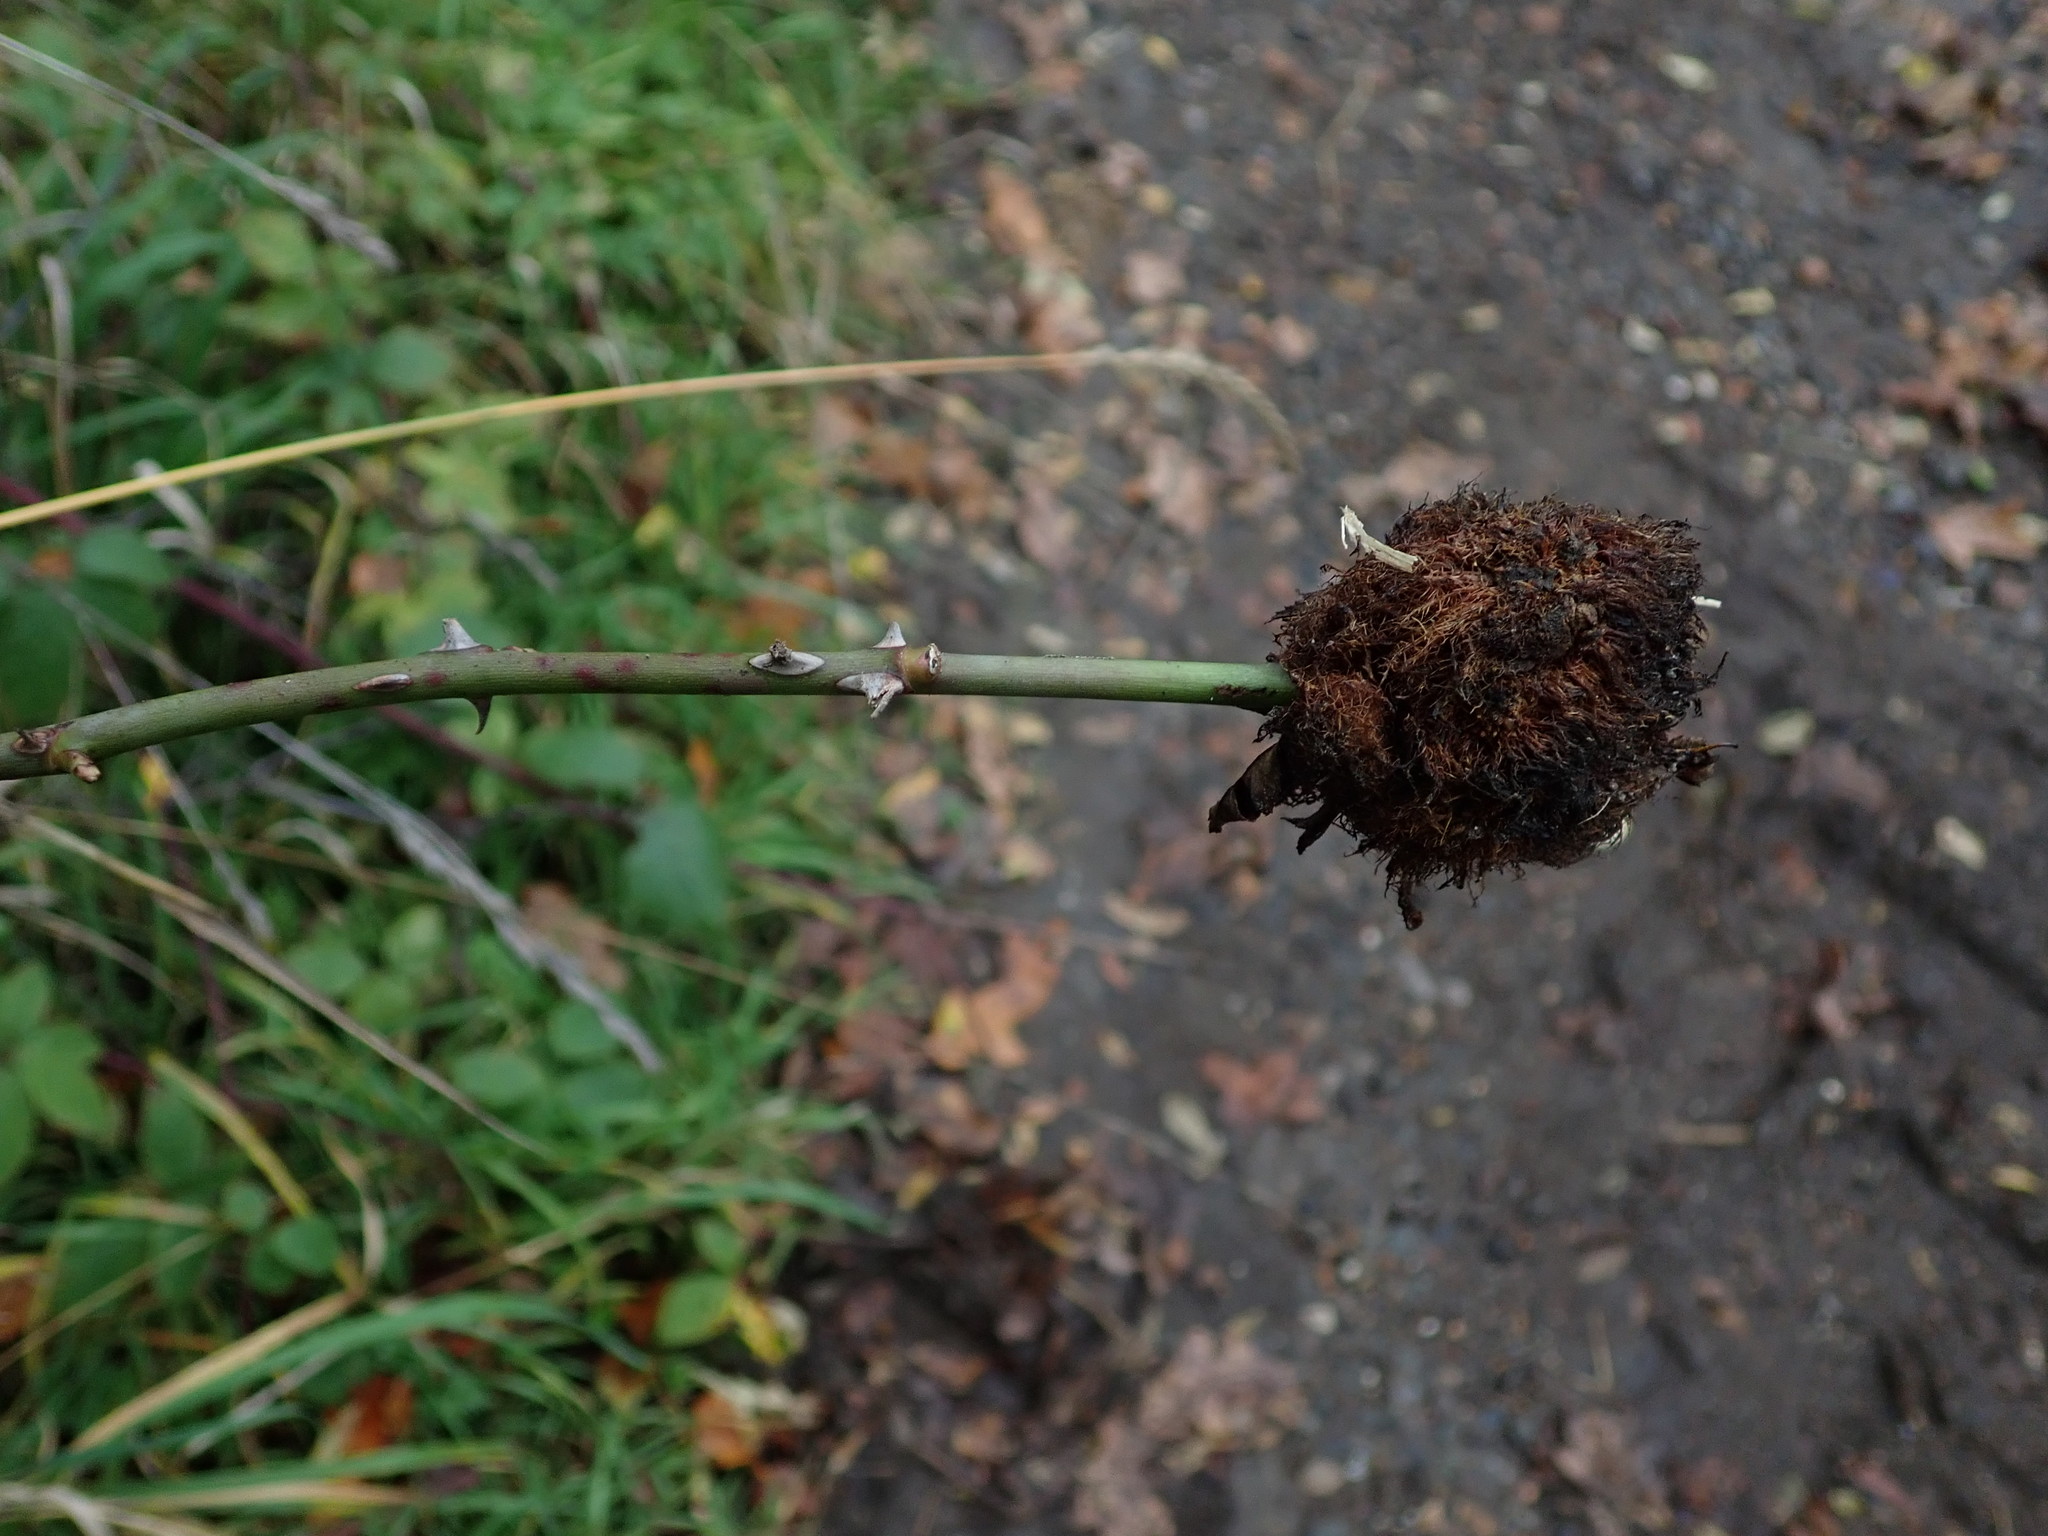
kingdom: Animalia
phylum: Arthropoda
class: Insecta
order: Hymenoptera
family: Cynipidae
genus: Diplolepis
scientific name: Diplolepis rosae
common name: Bedeguar gall
